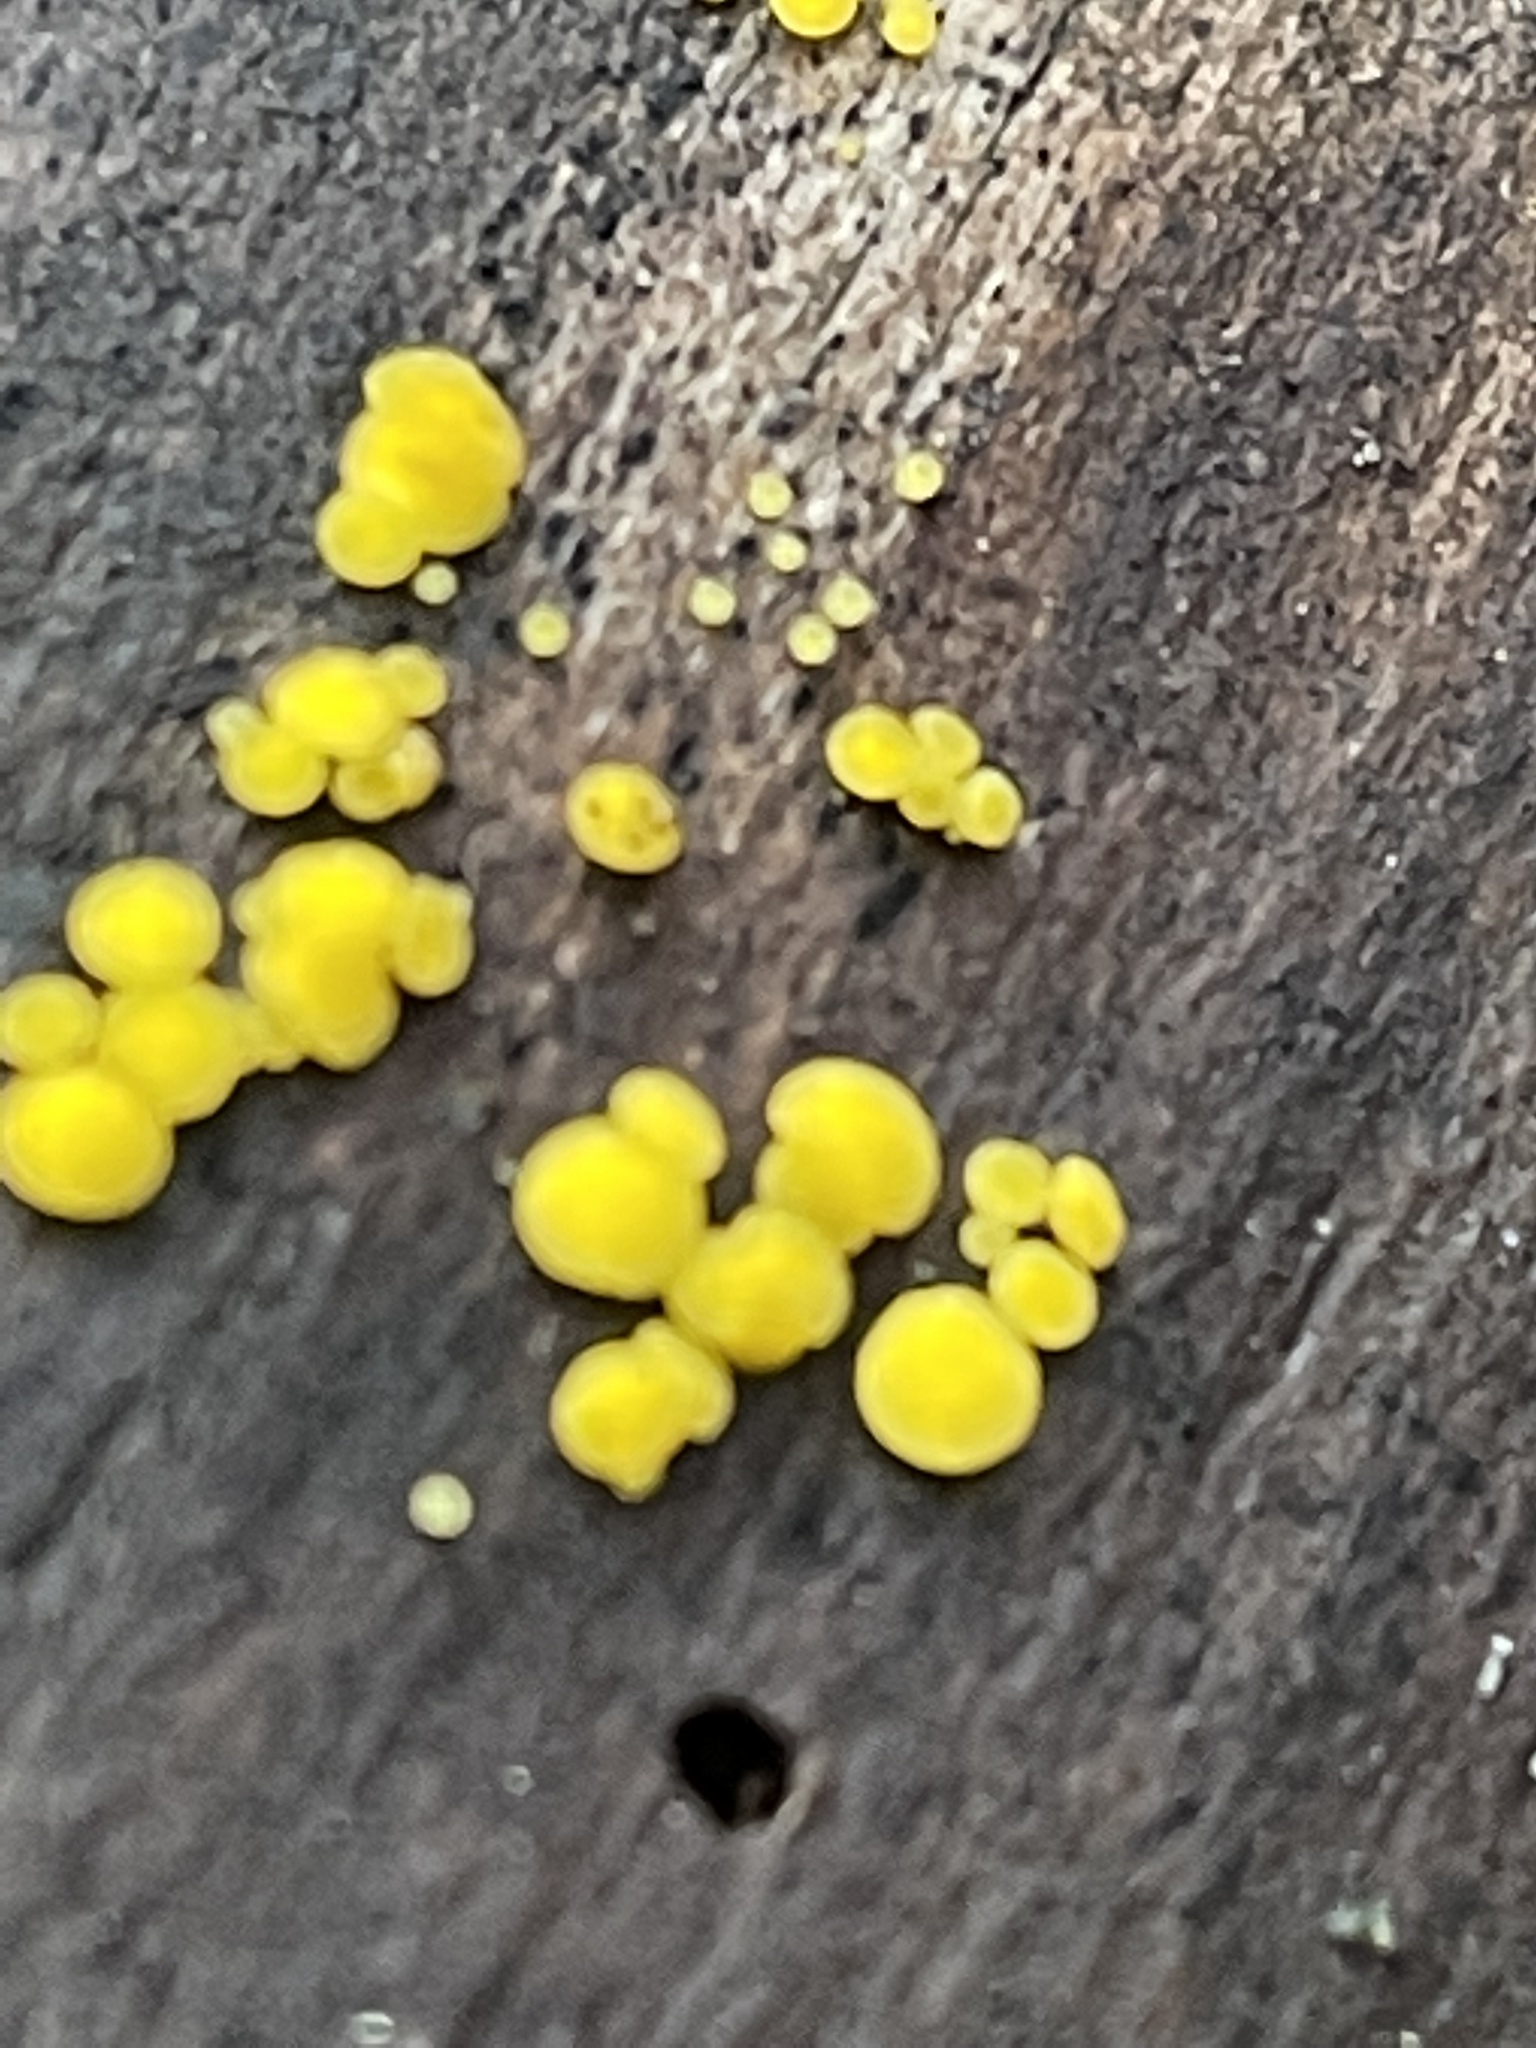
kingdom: Fungi
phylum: Ascomycota
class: Leotiomycetes
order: Helotiales
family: Pezizellaceae
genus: Calycina
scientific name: Calycina citrina
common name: Yellow fairy cups
